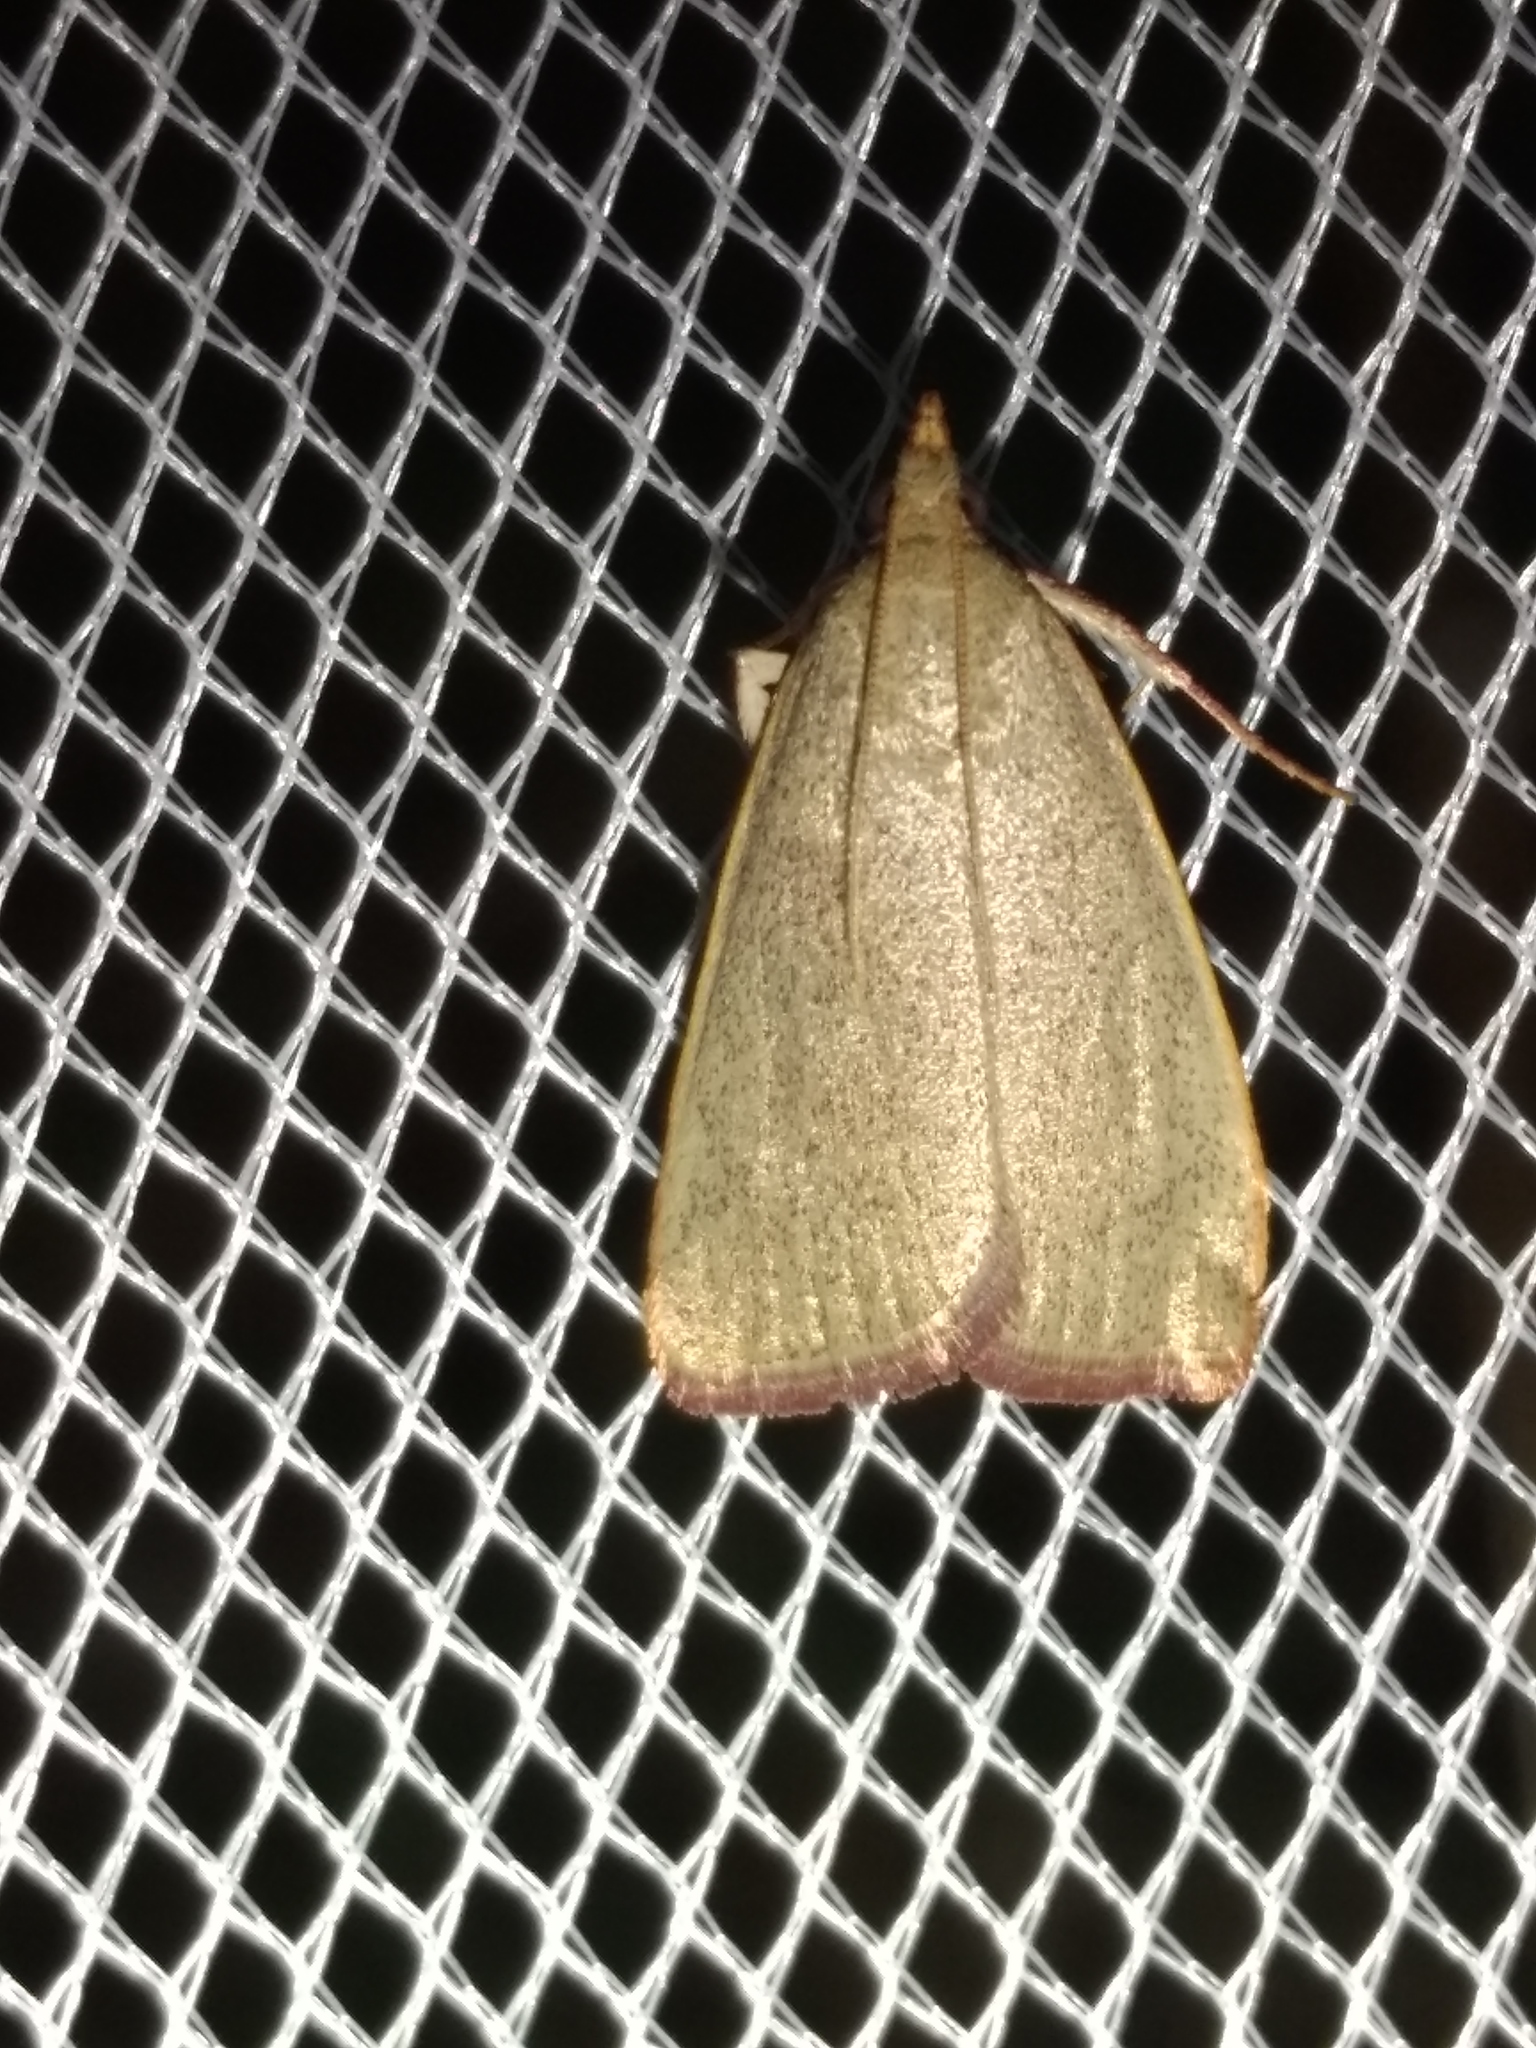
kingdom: Animalia
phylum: Arthropoda
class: Insecta
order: Lepidoptera
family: Pyralidae
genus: Hypsopygia
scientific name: Hypsopygia
